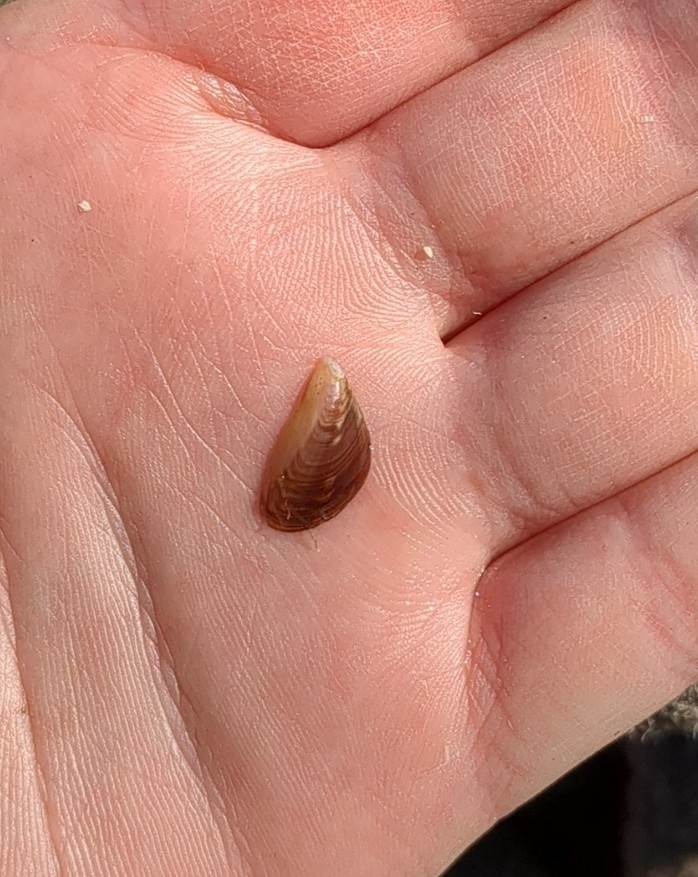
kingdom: Animalia
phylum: Mollusca
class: Bivalvia
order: Myida
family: Dreissenidae
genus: Dreissena
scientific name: Dreissena bugensis
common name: Quagga mussel
